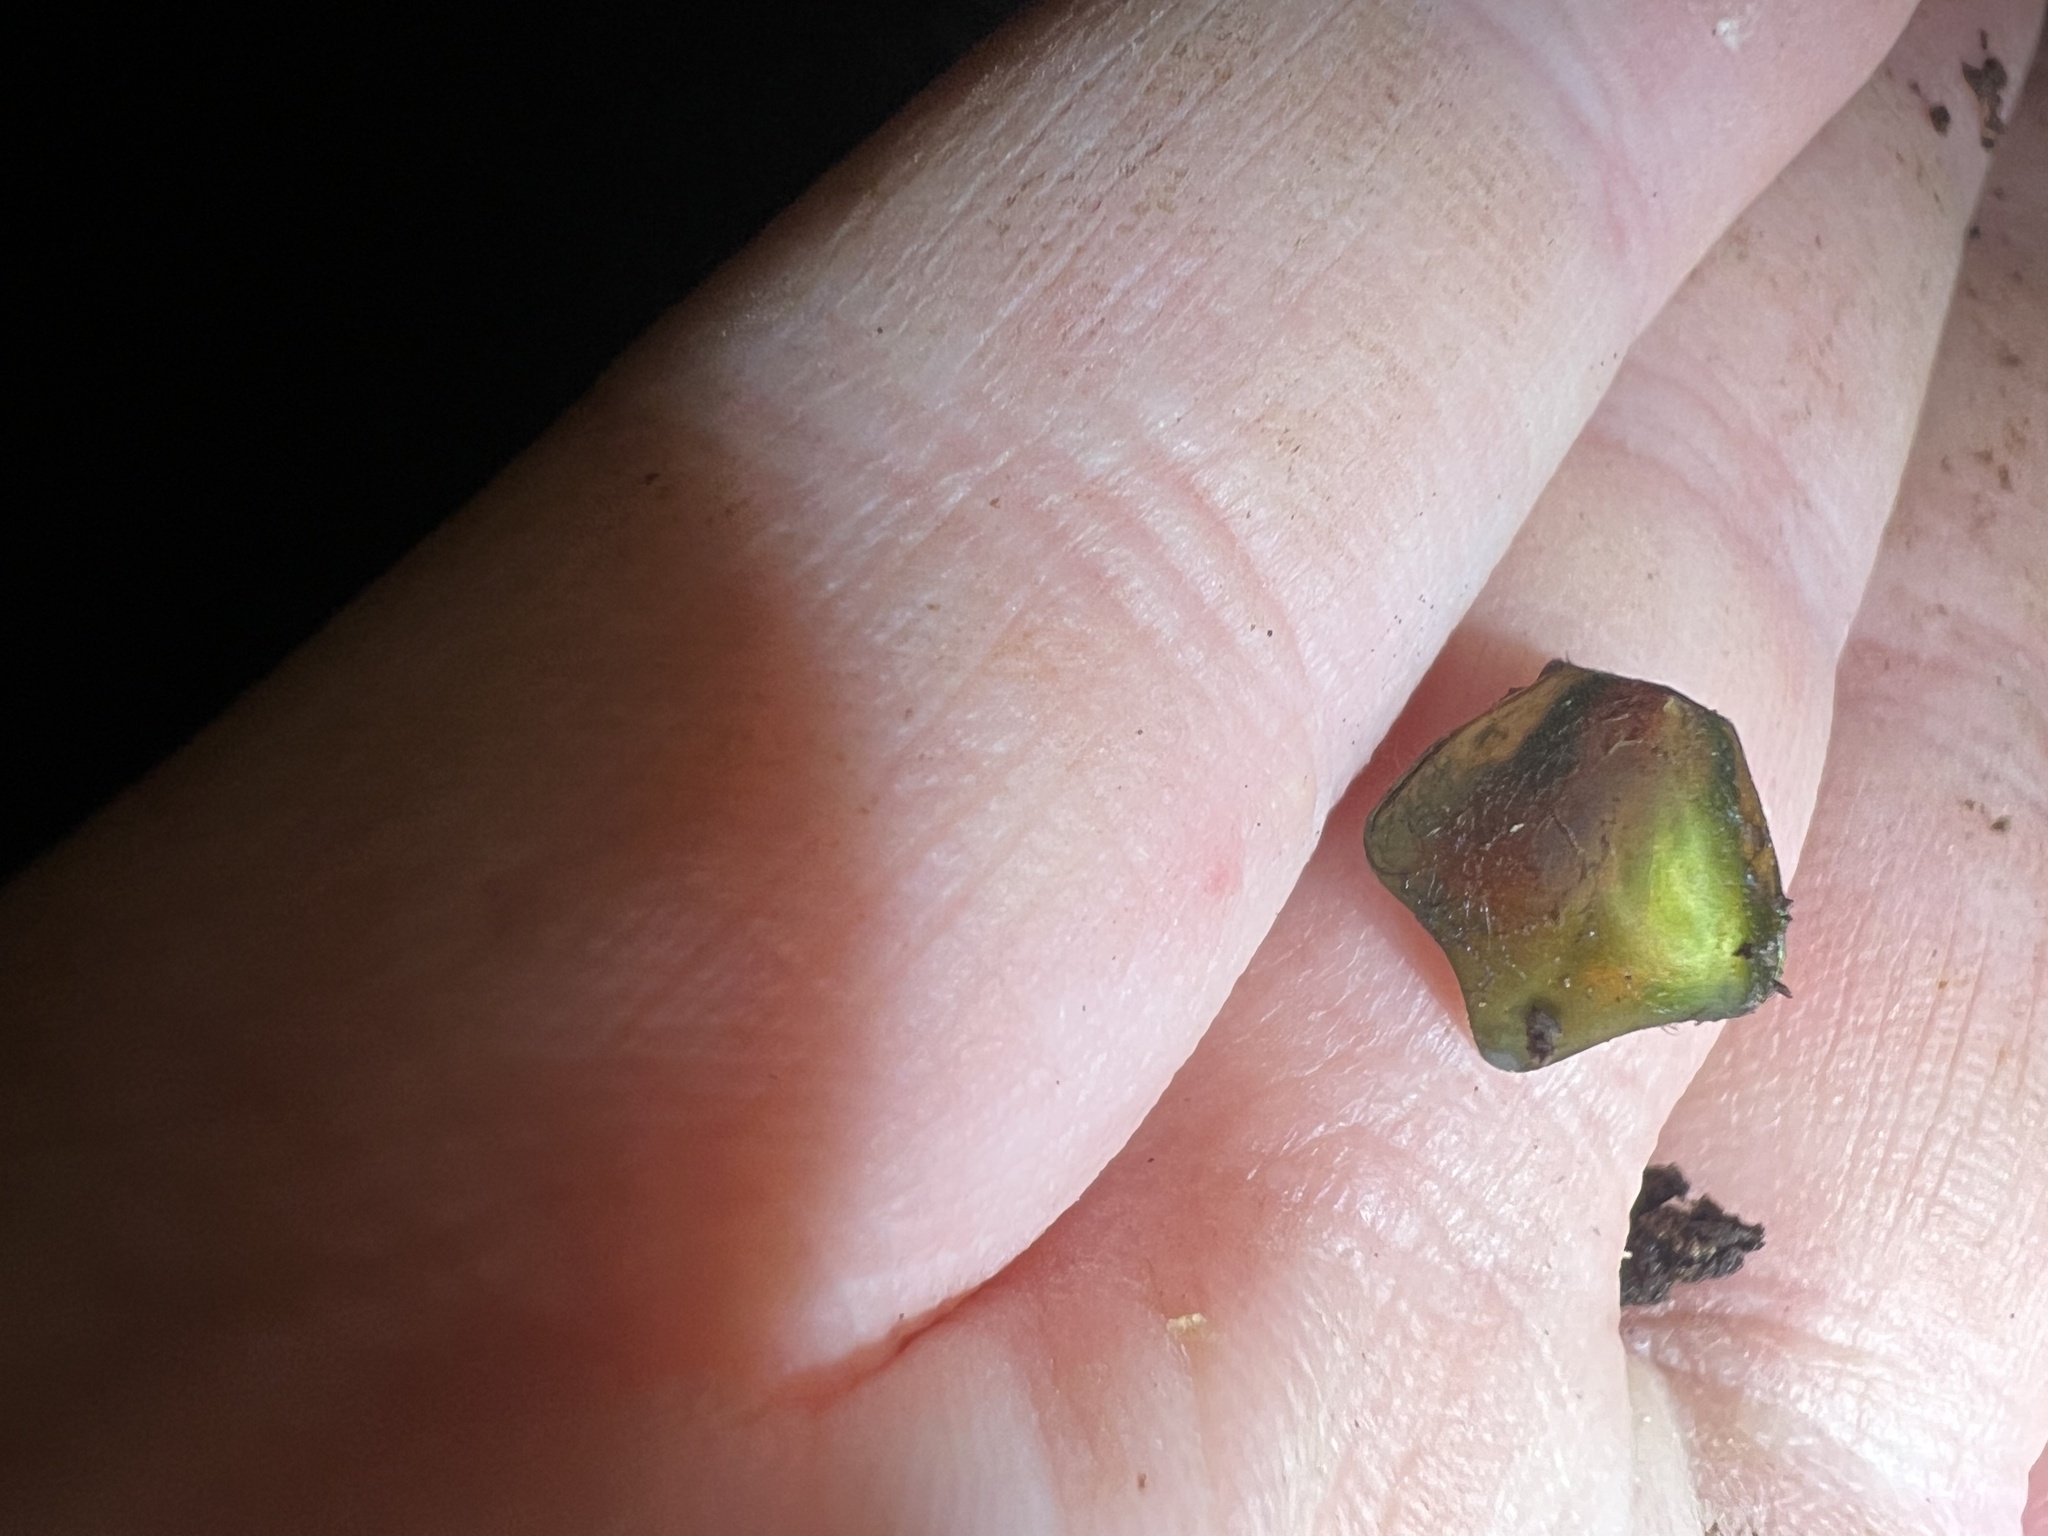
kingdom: Animalia
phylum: Arthropoda
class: Insecta
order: Coleoptera
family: Scarabaeidae
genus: Cotinis
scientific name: Cotinis nitida
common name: Common green june beetle
